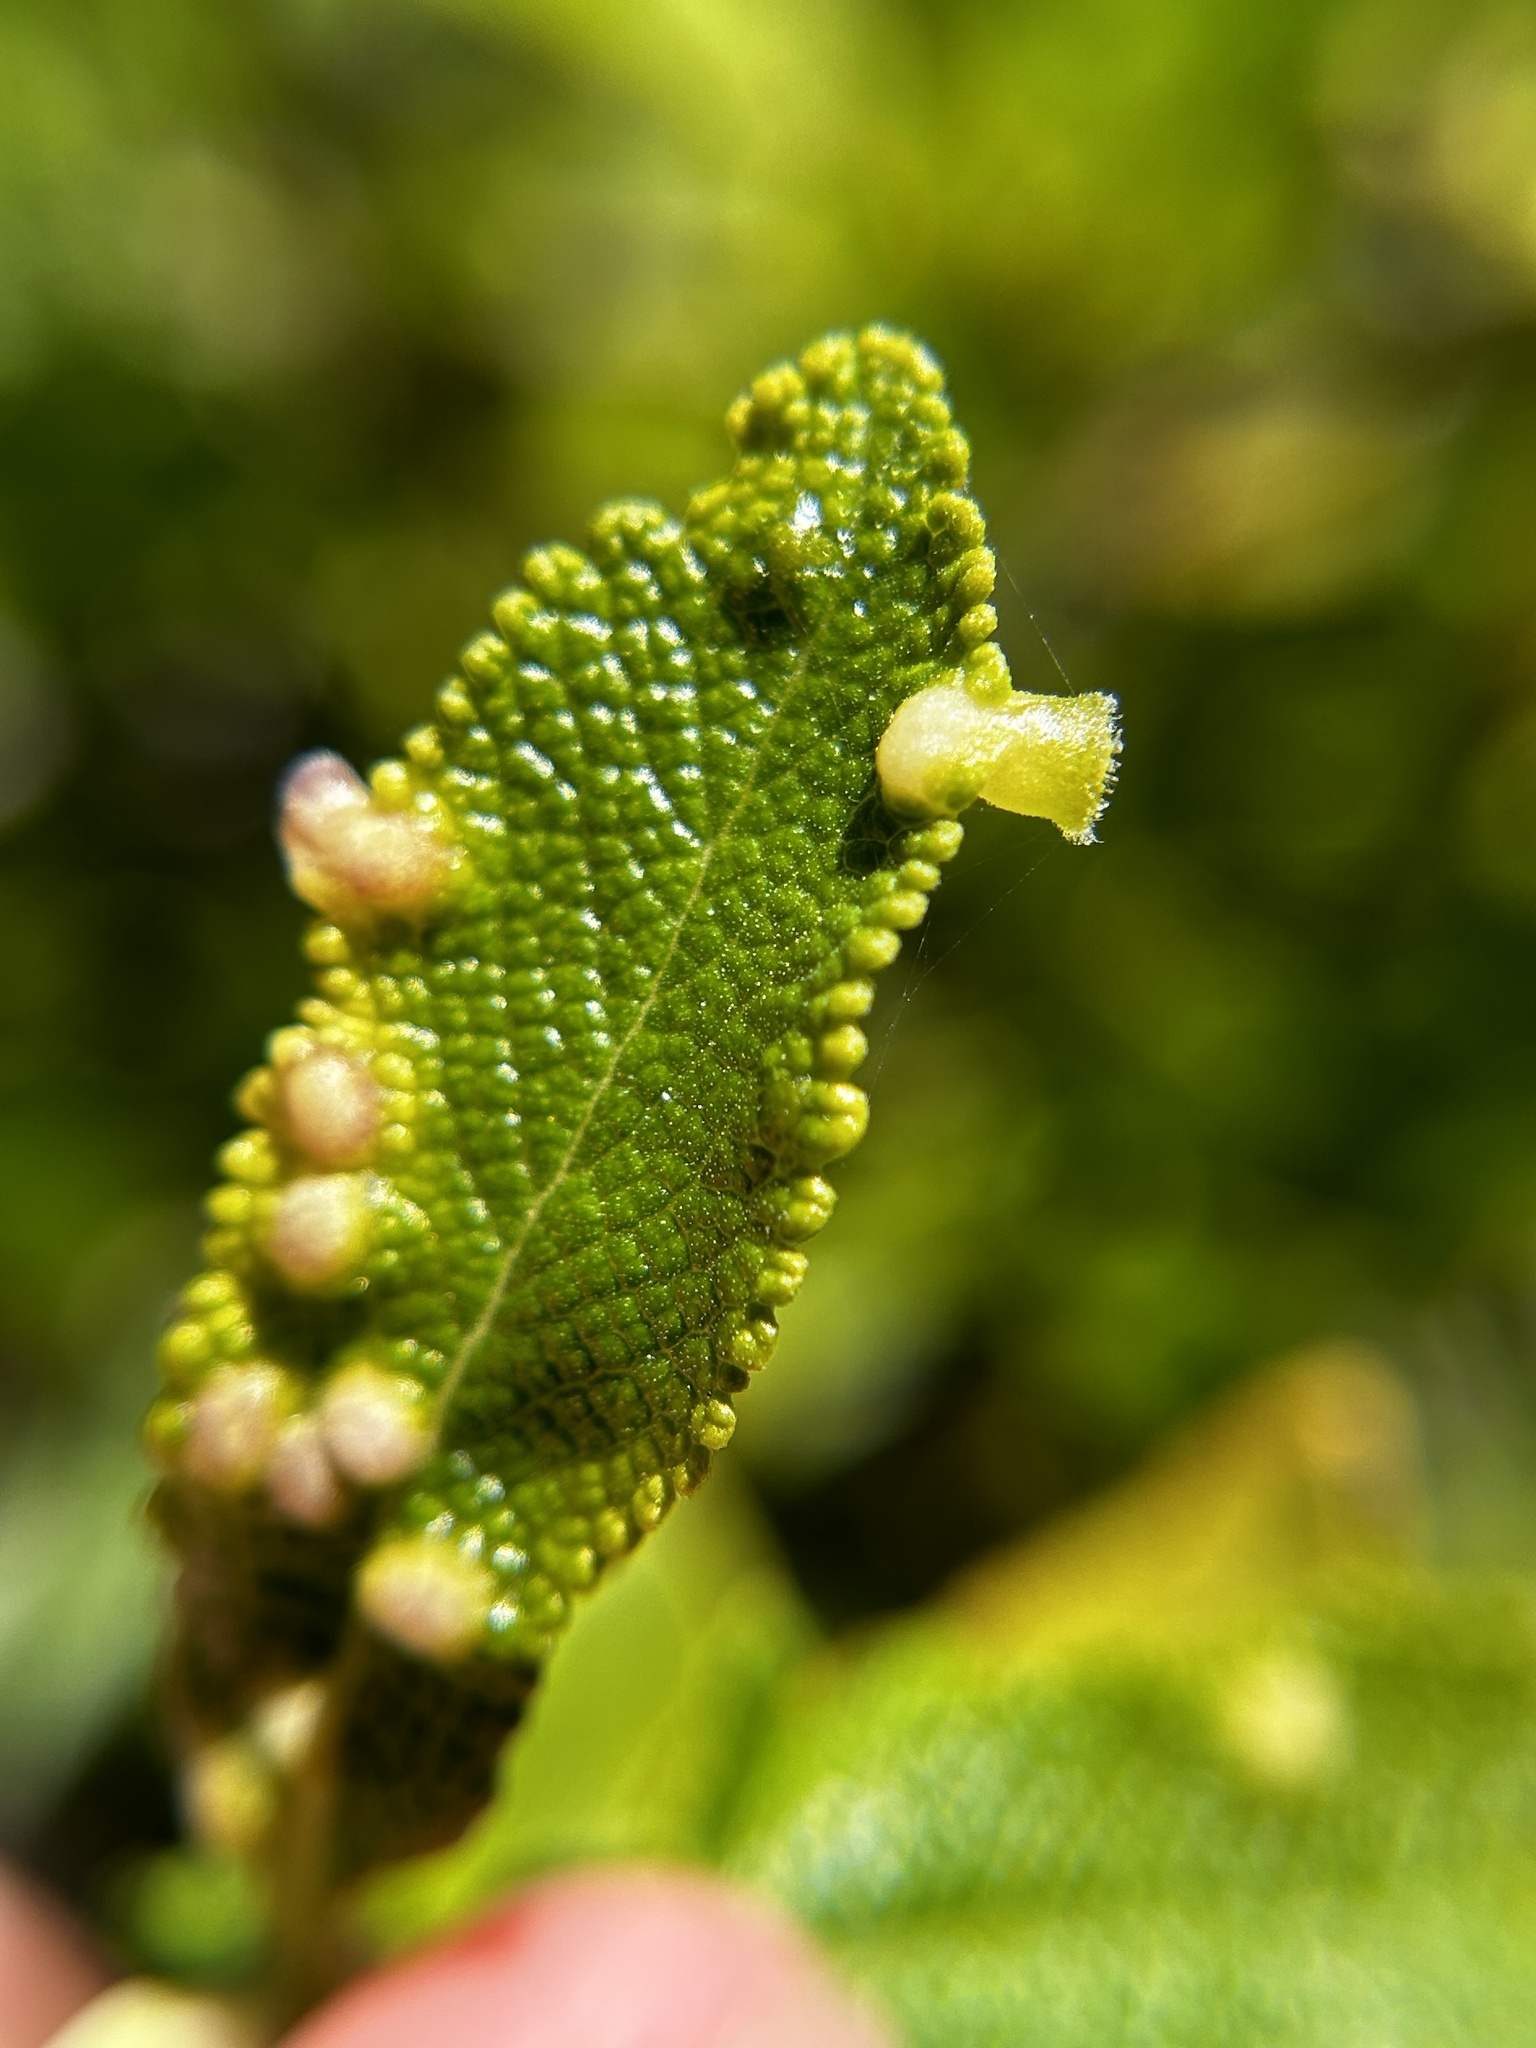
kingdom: Animalia
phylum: Arthropoda
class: Insecta
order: Diptera
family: Cecidomyiidae
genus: Rhopalomyia
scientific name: Rhopalomyia audibertiae
